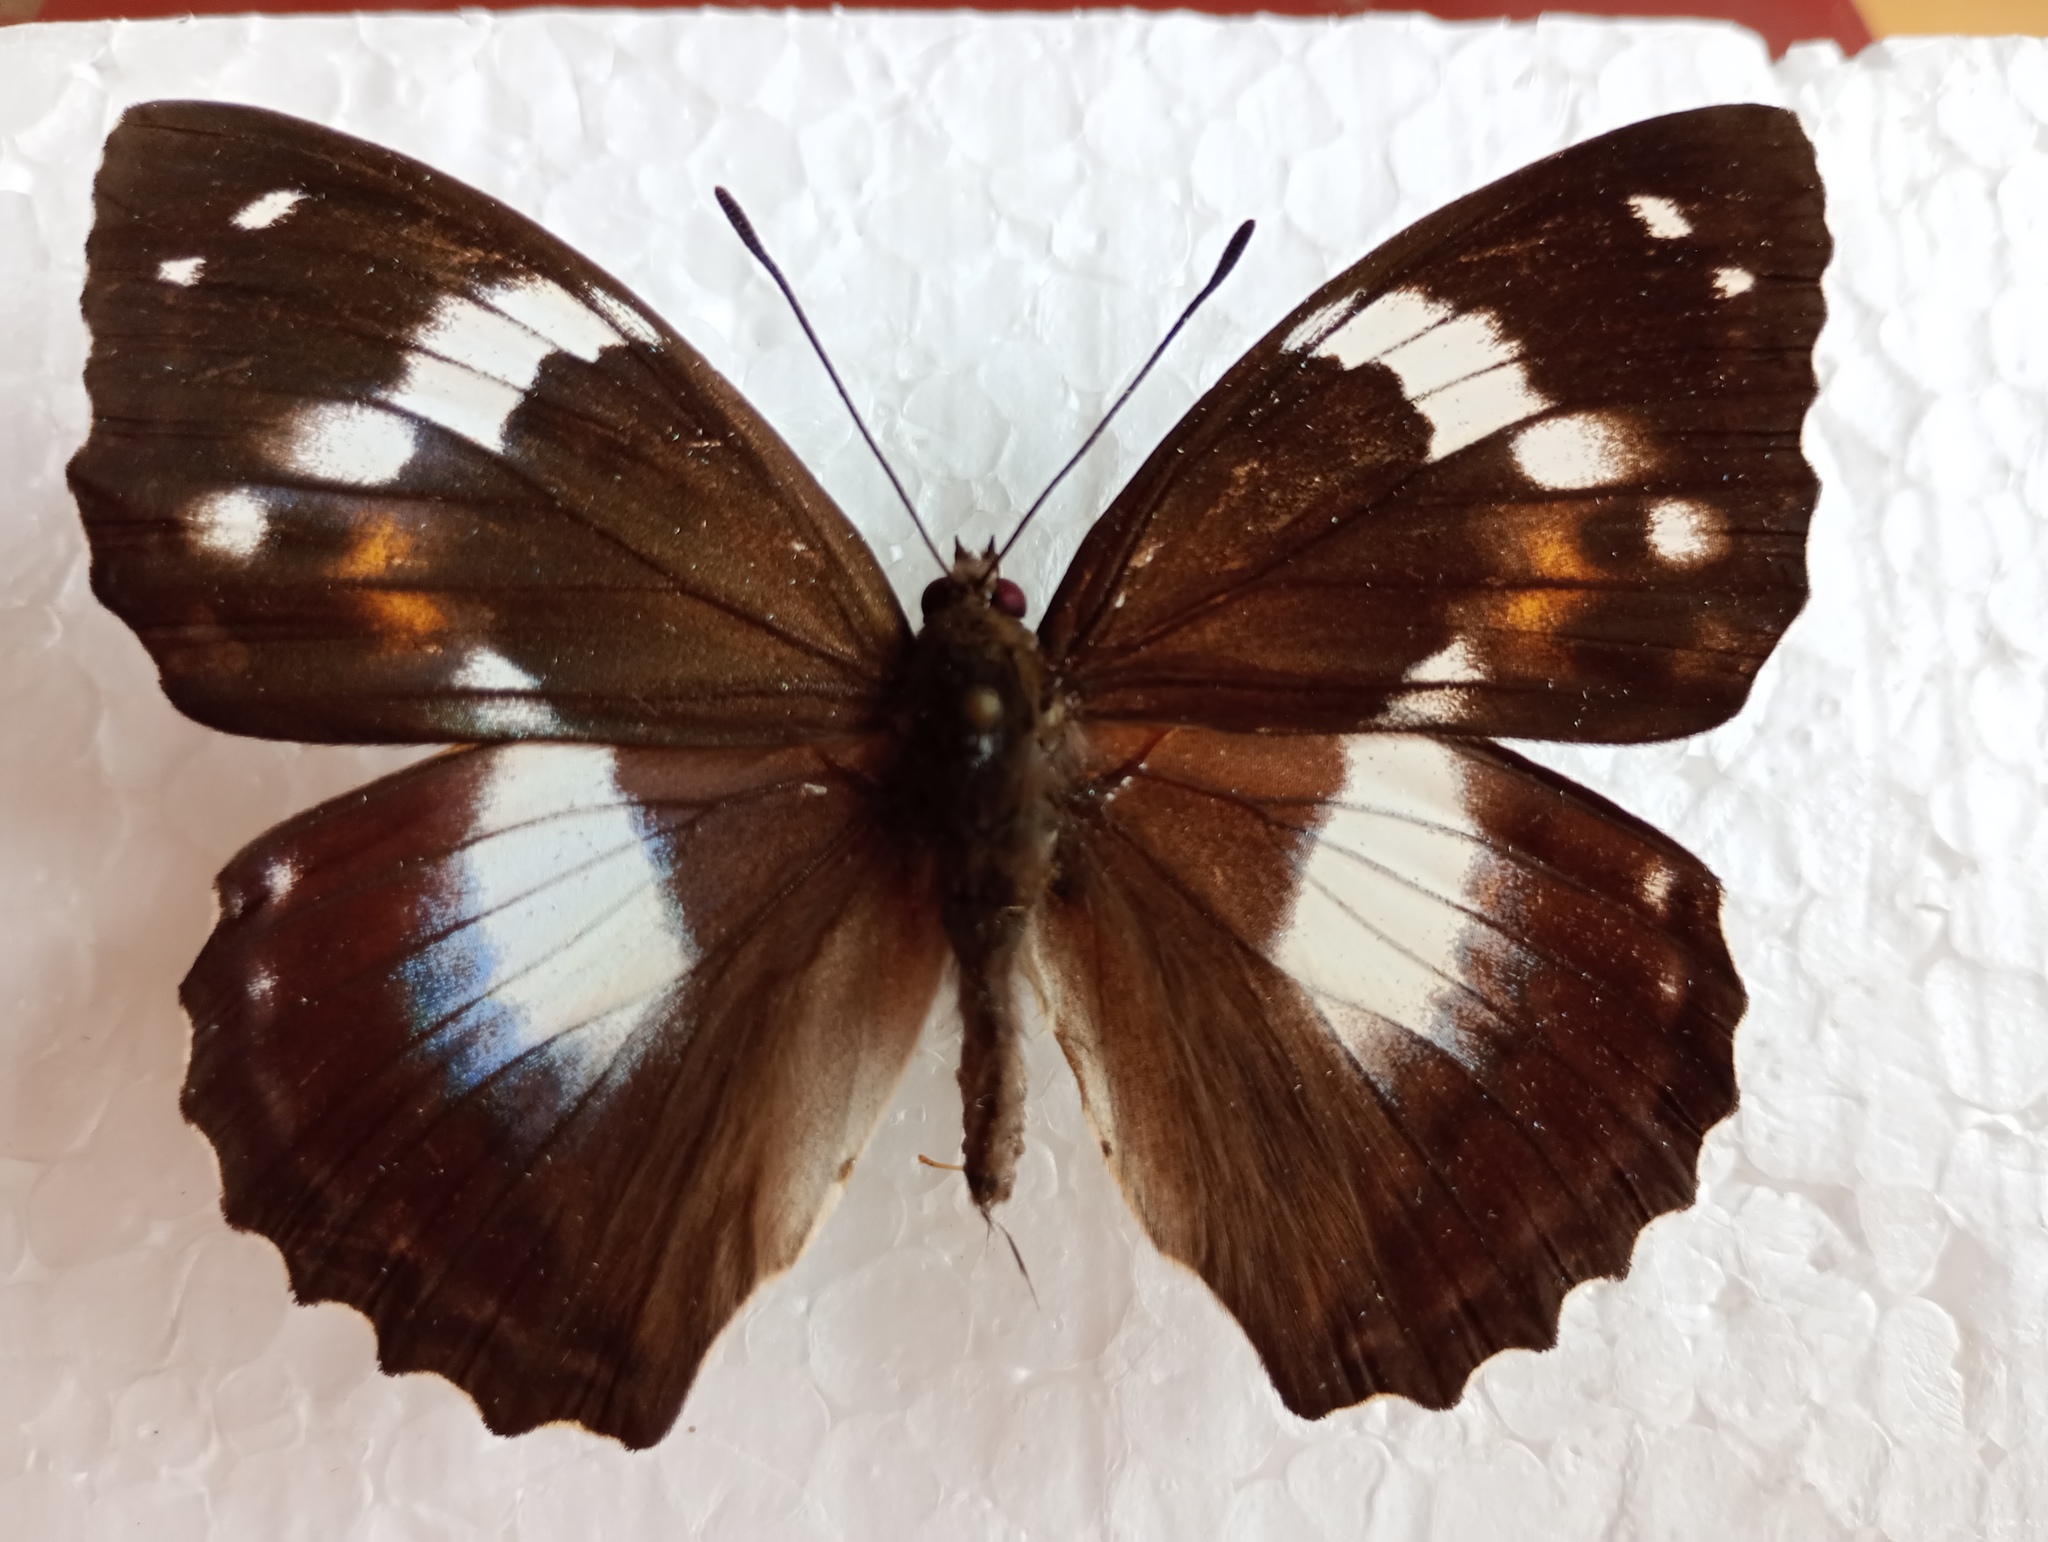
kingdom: Animalia
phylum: Arthropoda
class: Insecta
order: Lepidoptera
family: Nymphalidae
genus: Apatura
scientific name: Apatura Mimathyma schrencki
